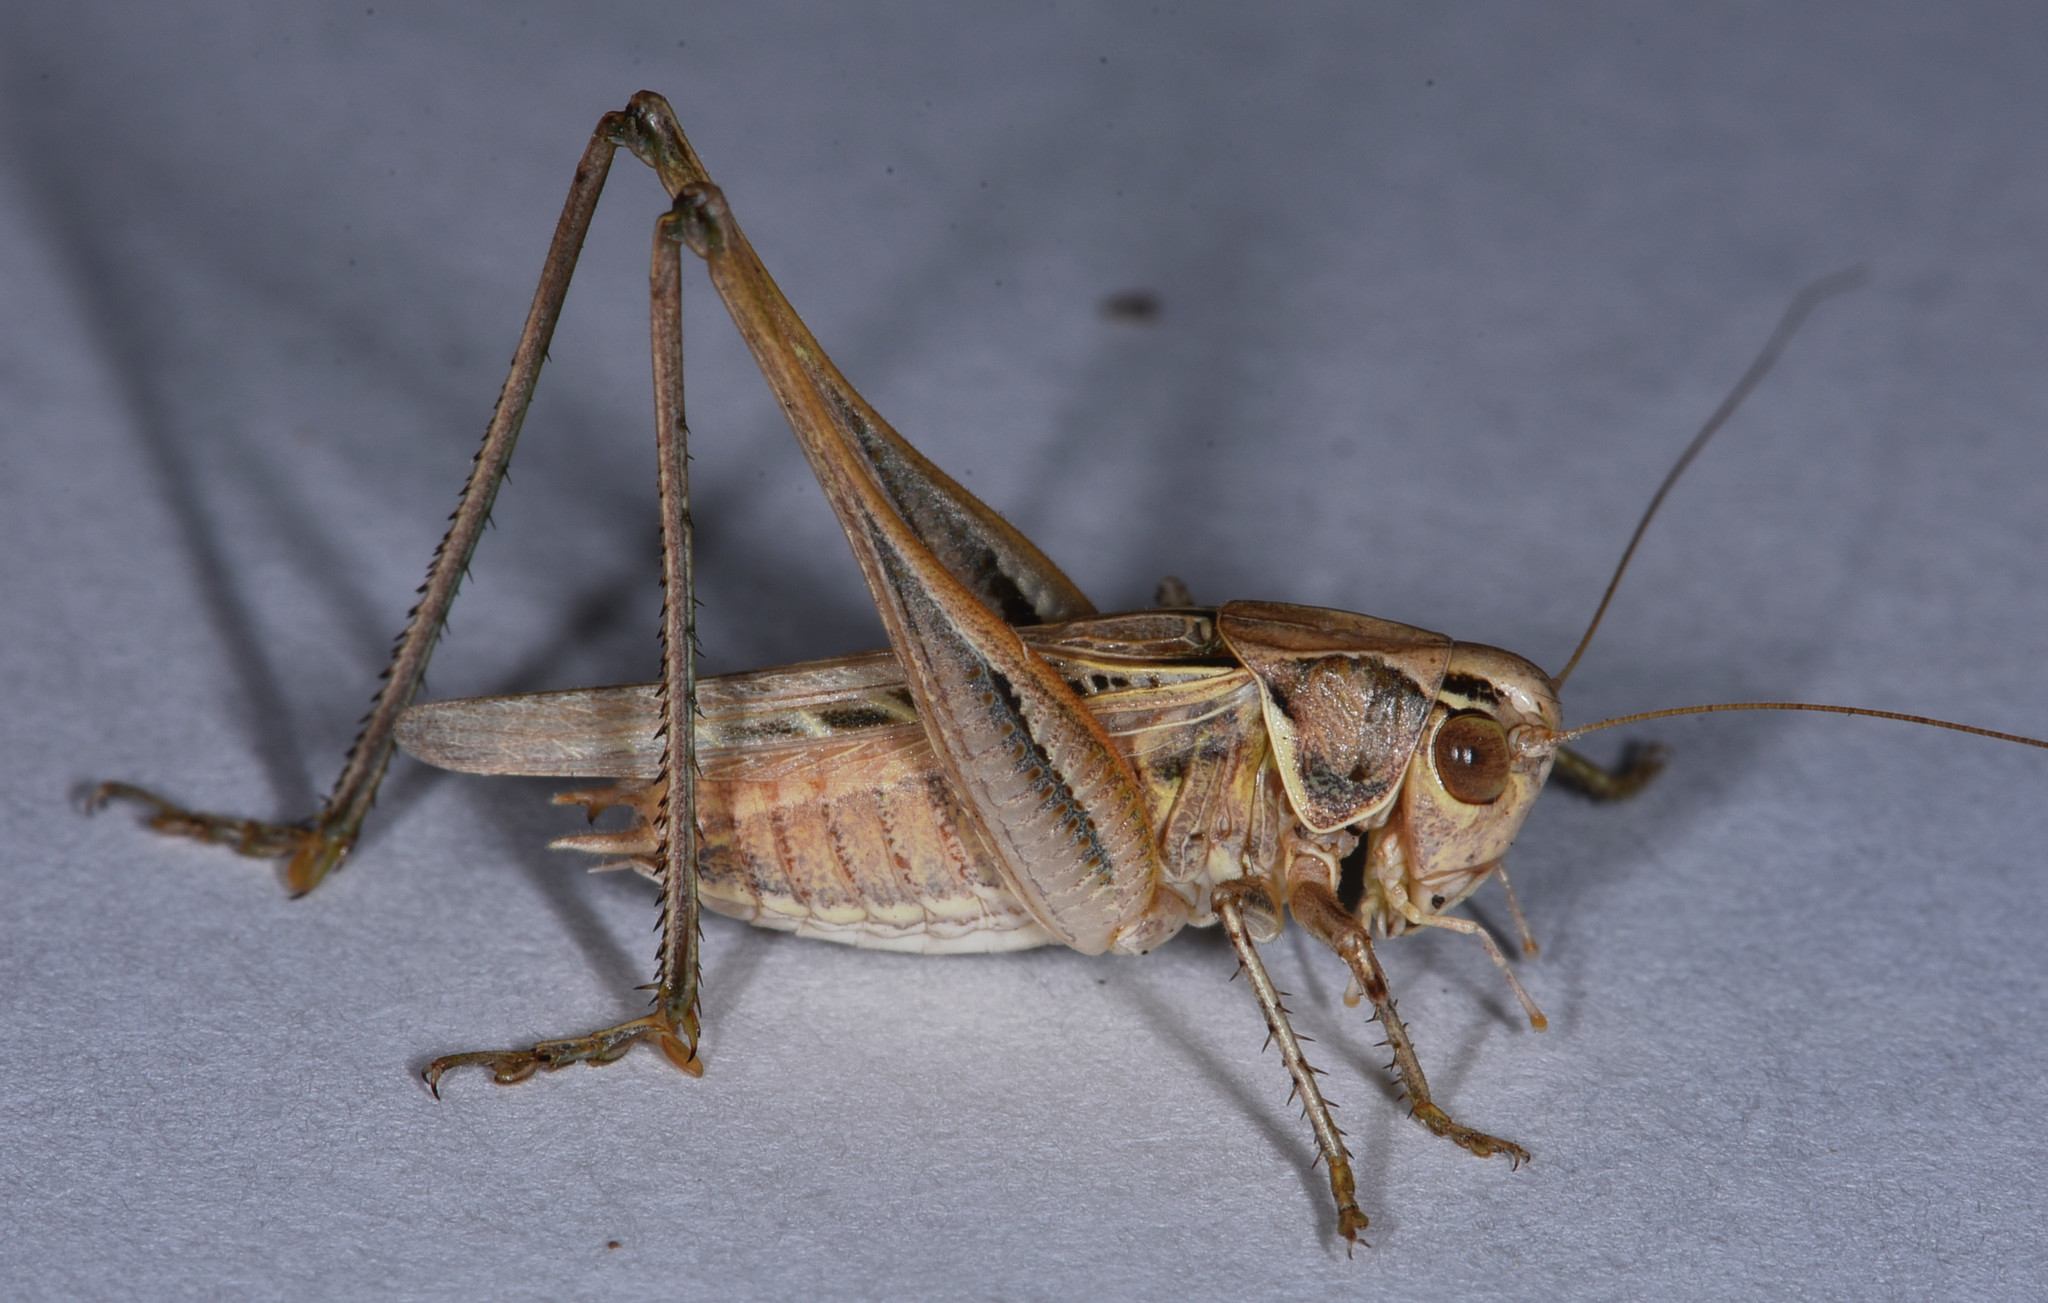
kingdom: Animalia
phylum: Arthropoda
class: Insecta
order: Orthoptera
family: Tettigoniidae
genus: Tessellana
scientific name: Tessellana tessellata
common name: Grasshopper
